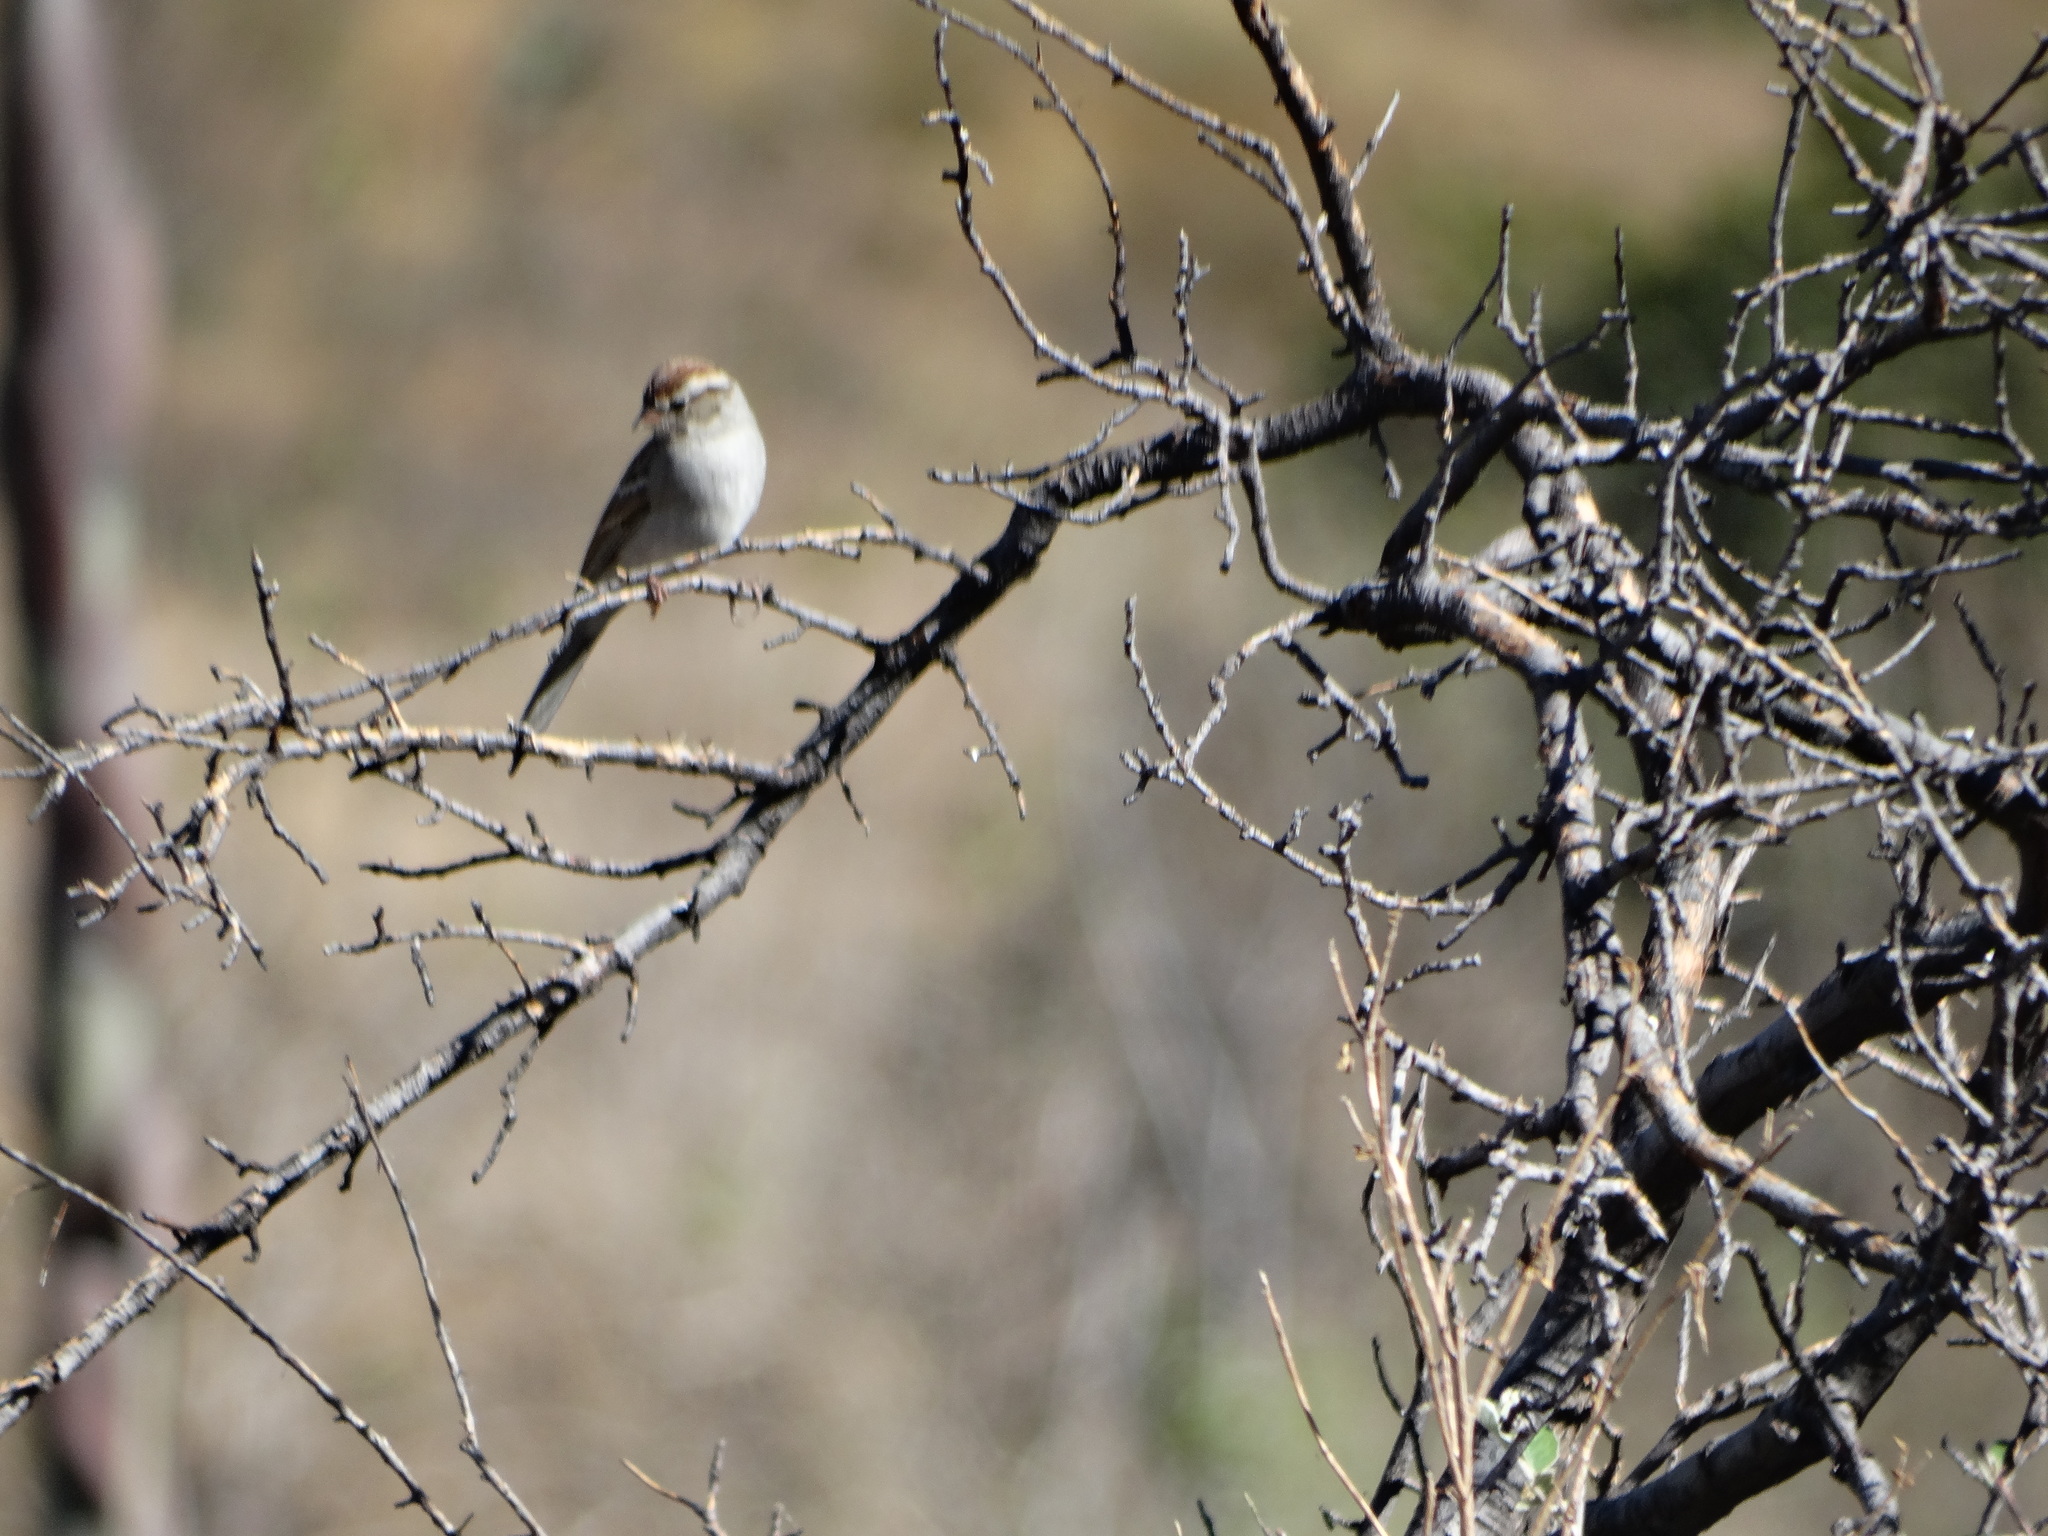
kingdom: Animalia
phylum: Chordata
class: Aves
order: Passeriformes
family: Passerellidae
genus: Spizella
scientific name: Spizella passerina
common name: Chipping sparrow
